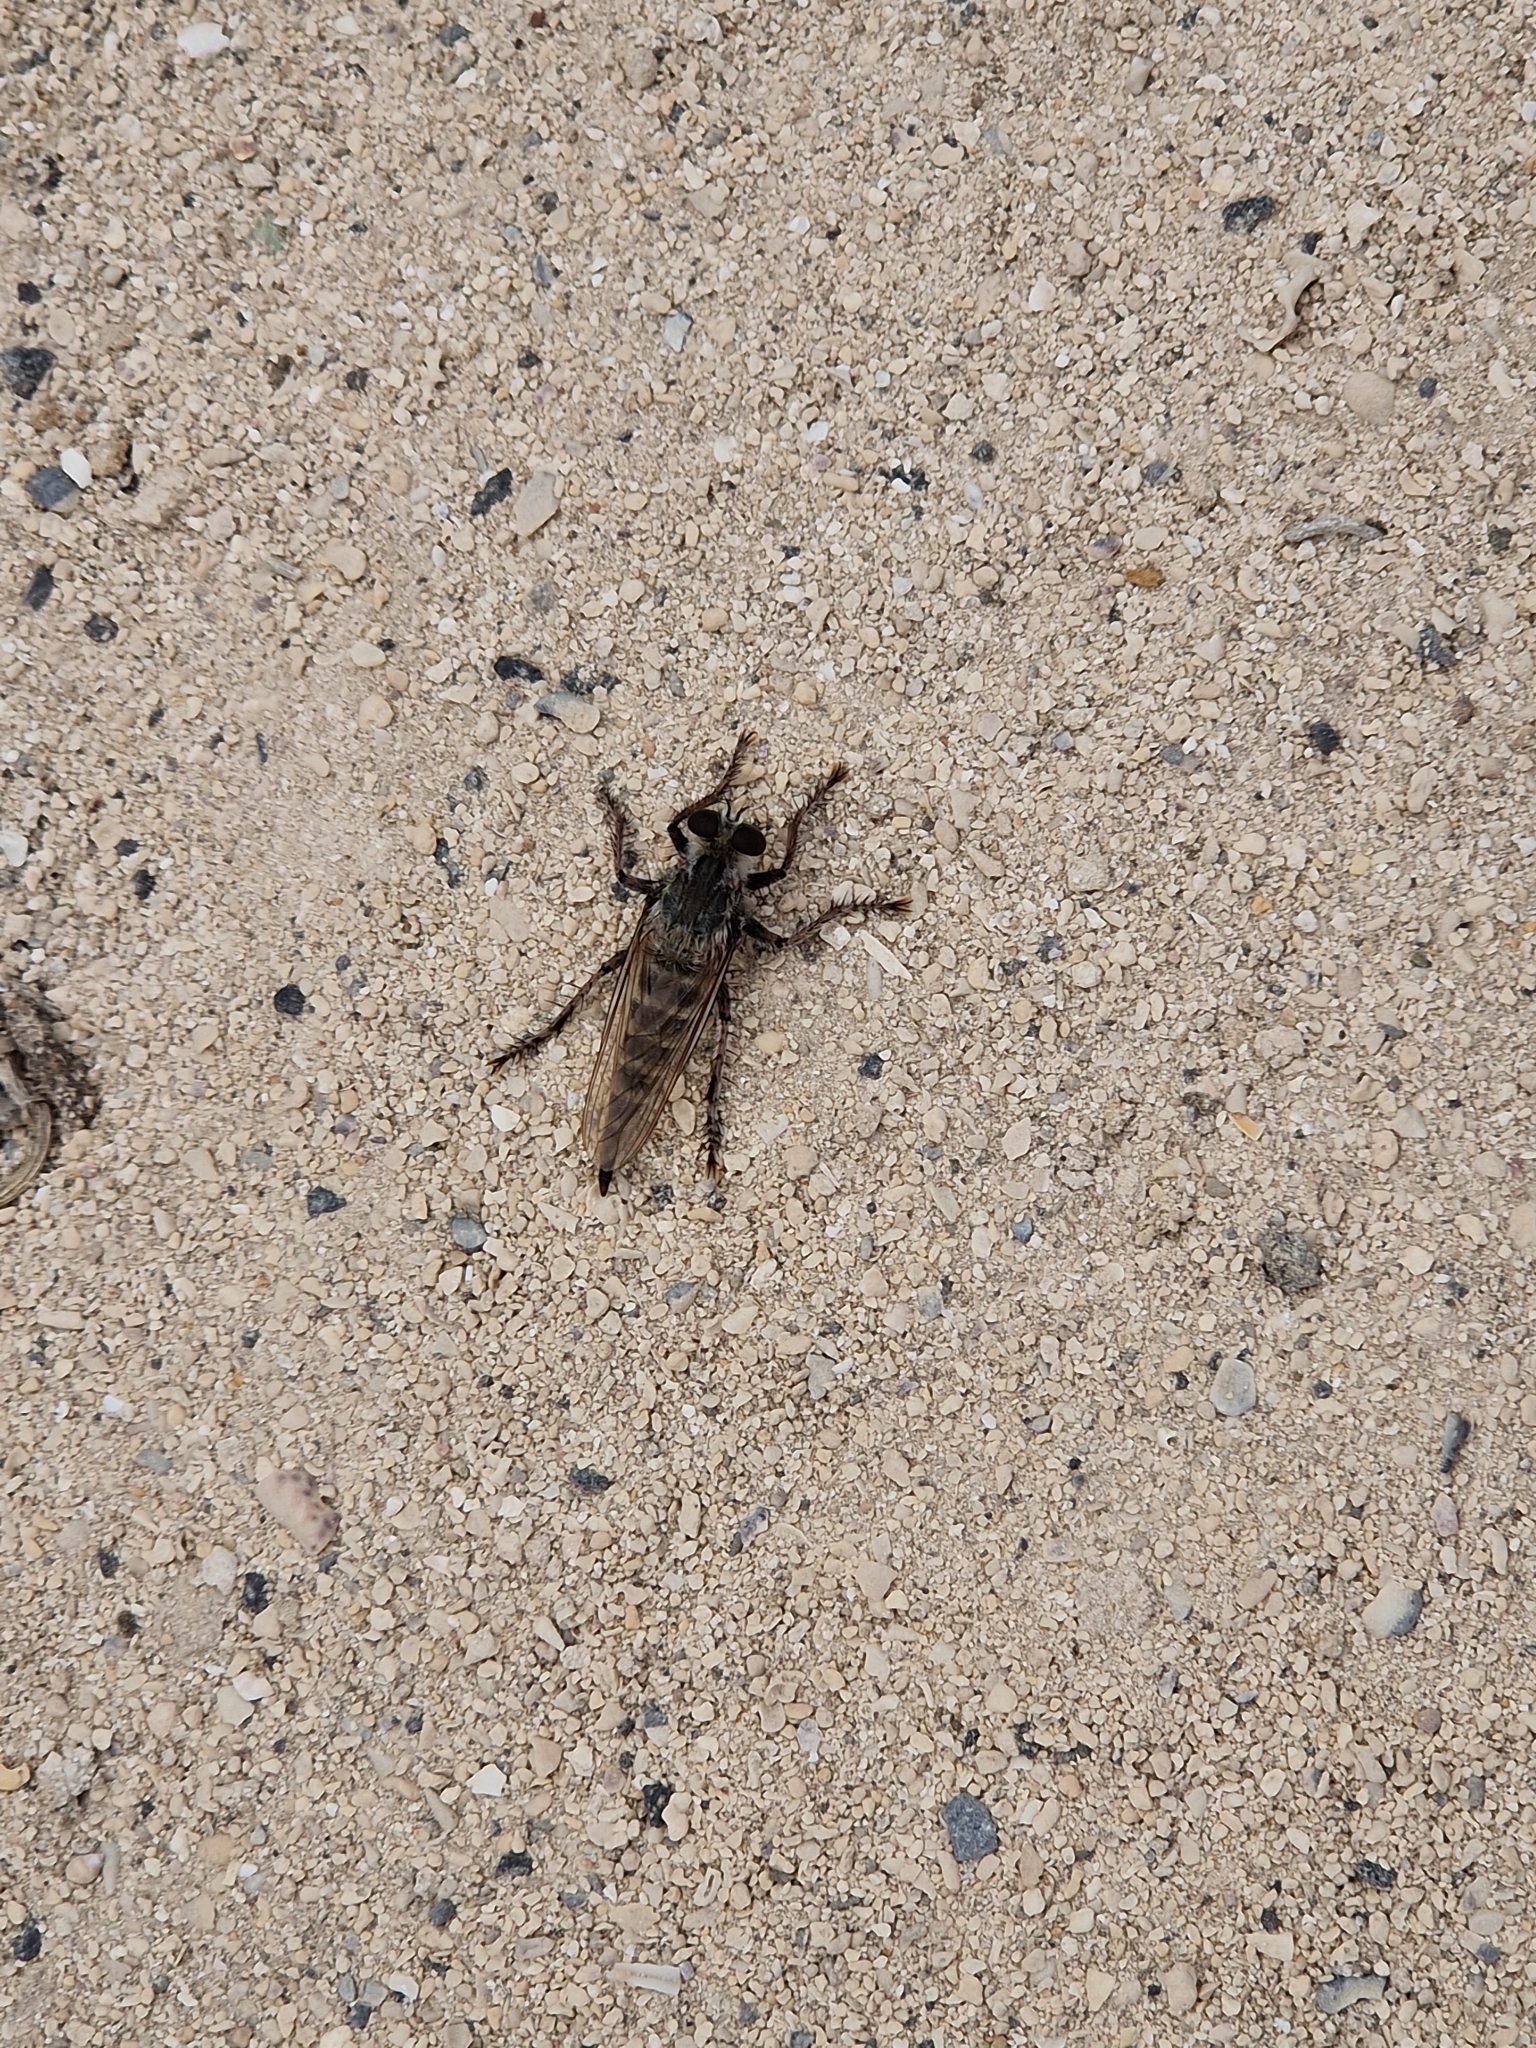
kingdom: Animalia
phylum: Arthropoda
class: Insecta
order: Diptera
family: Asilidae
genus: Promachus
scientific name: Promachus consanguineus
